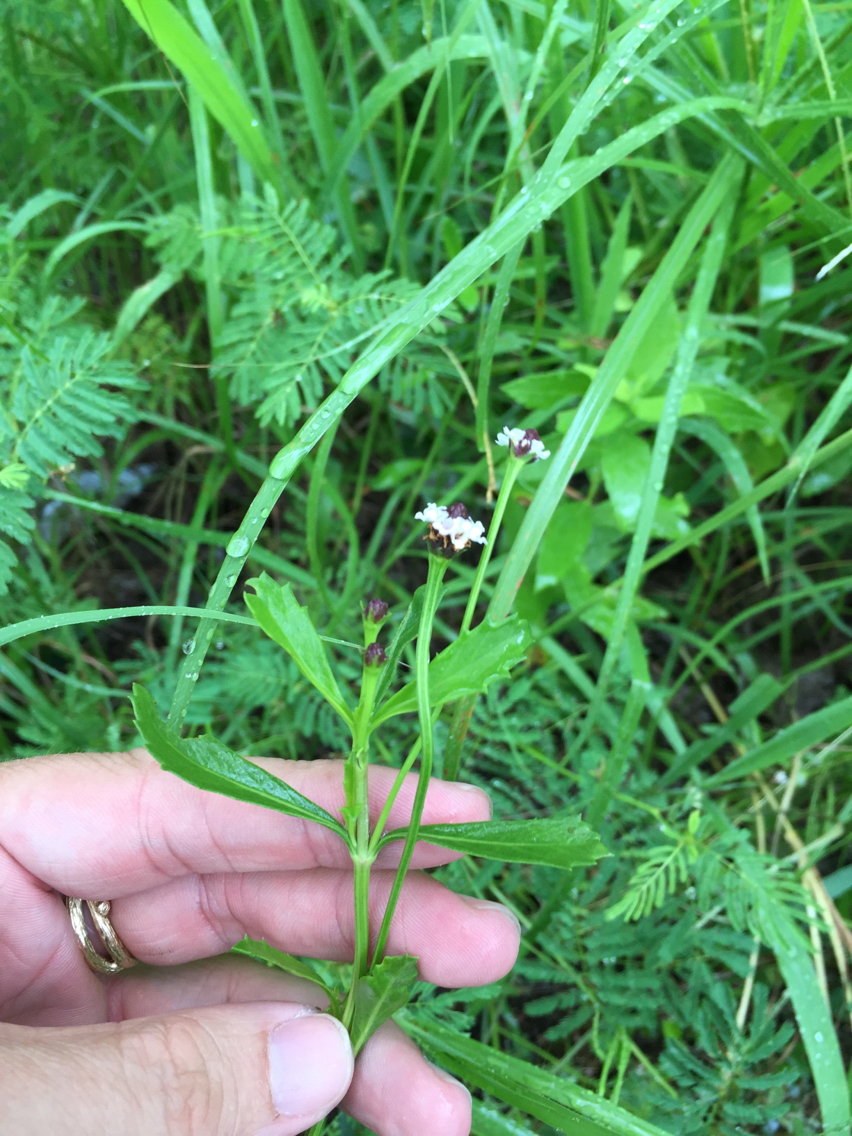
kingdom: Plantae
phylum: Tracheophyta
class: Magnoliopsida
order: Lamiales
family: Verbenaceae
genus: Phyla
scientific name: Phyla nodiflora
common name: Frogfruit
